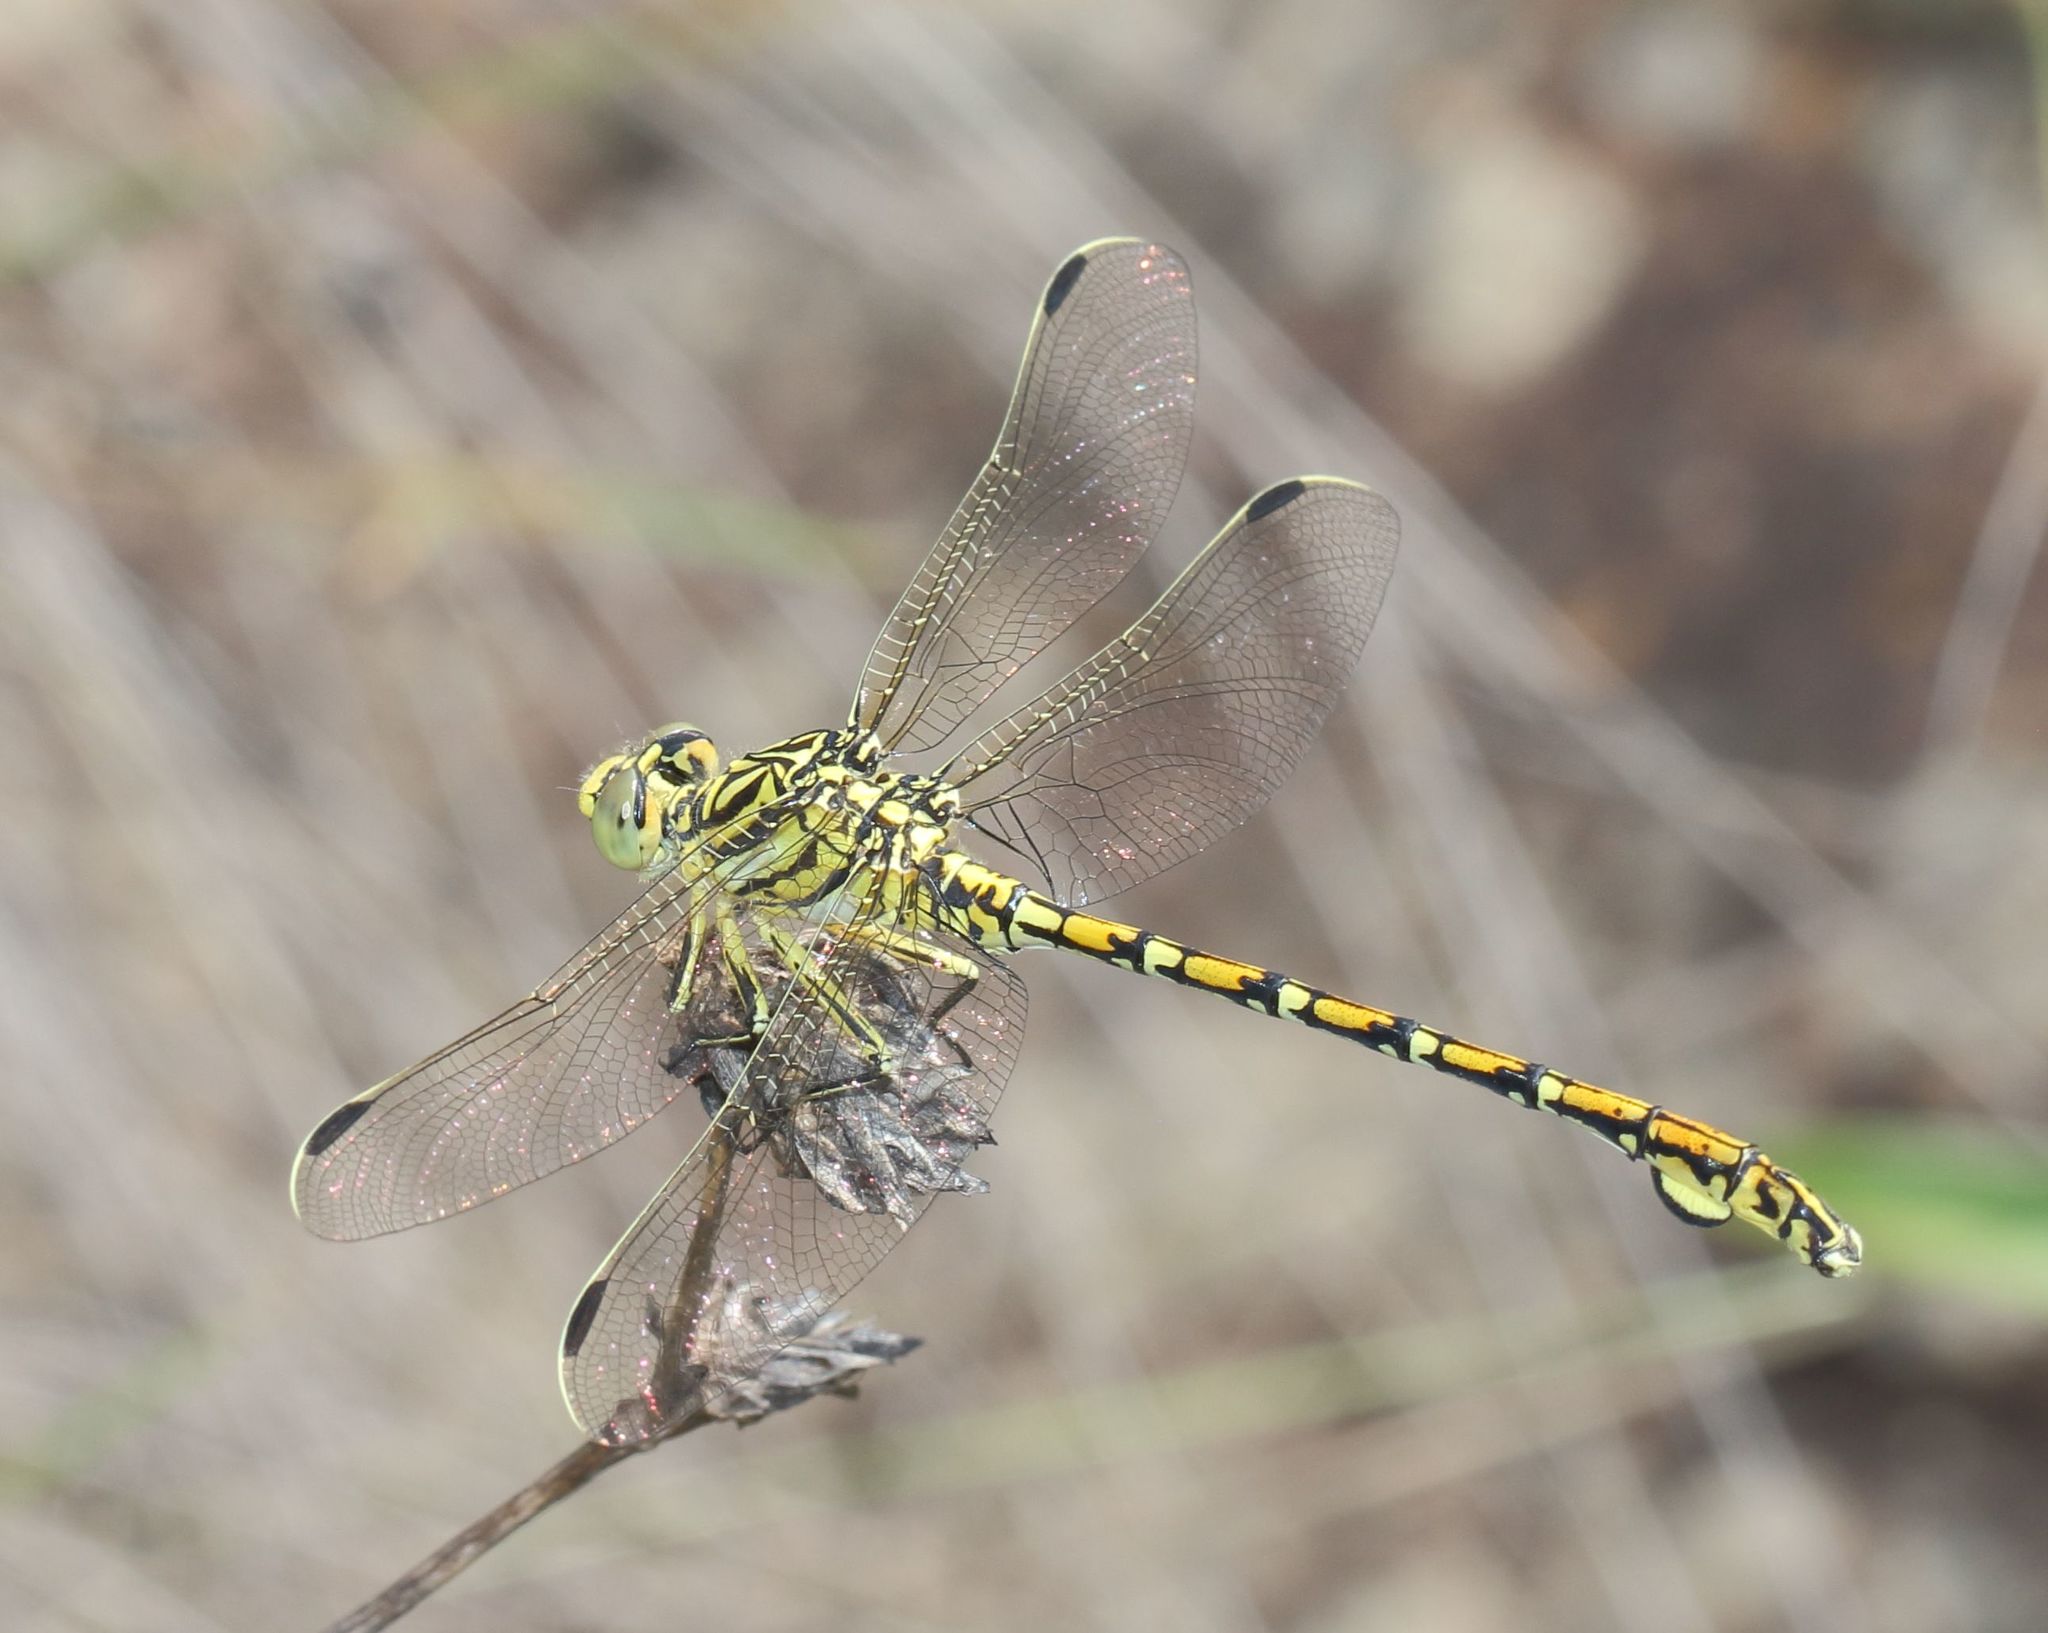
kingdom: Animalia
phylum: Arthropoda
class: Insecta
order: Odonata
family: Gomphidae
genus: Ceratogomphus
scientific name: Ceratogomphus pictus
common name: Common thorntail
